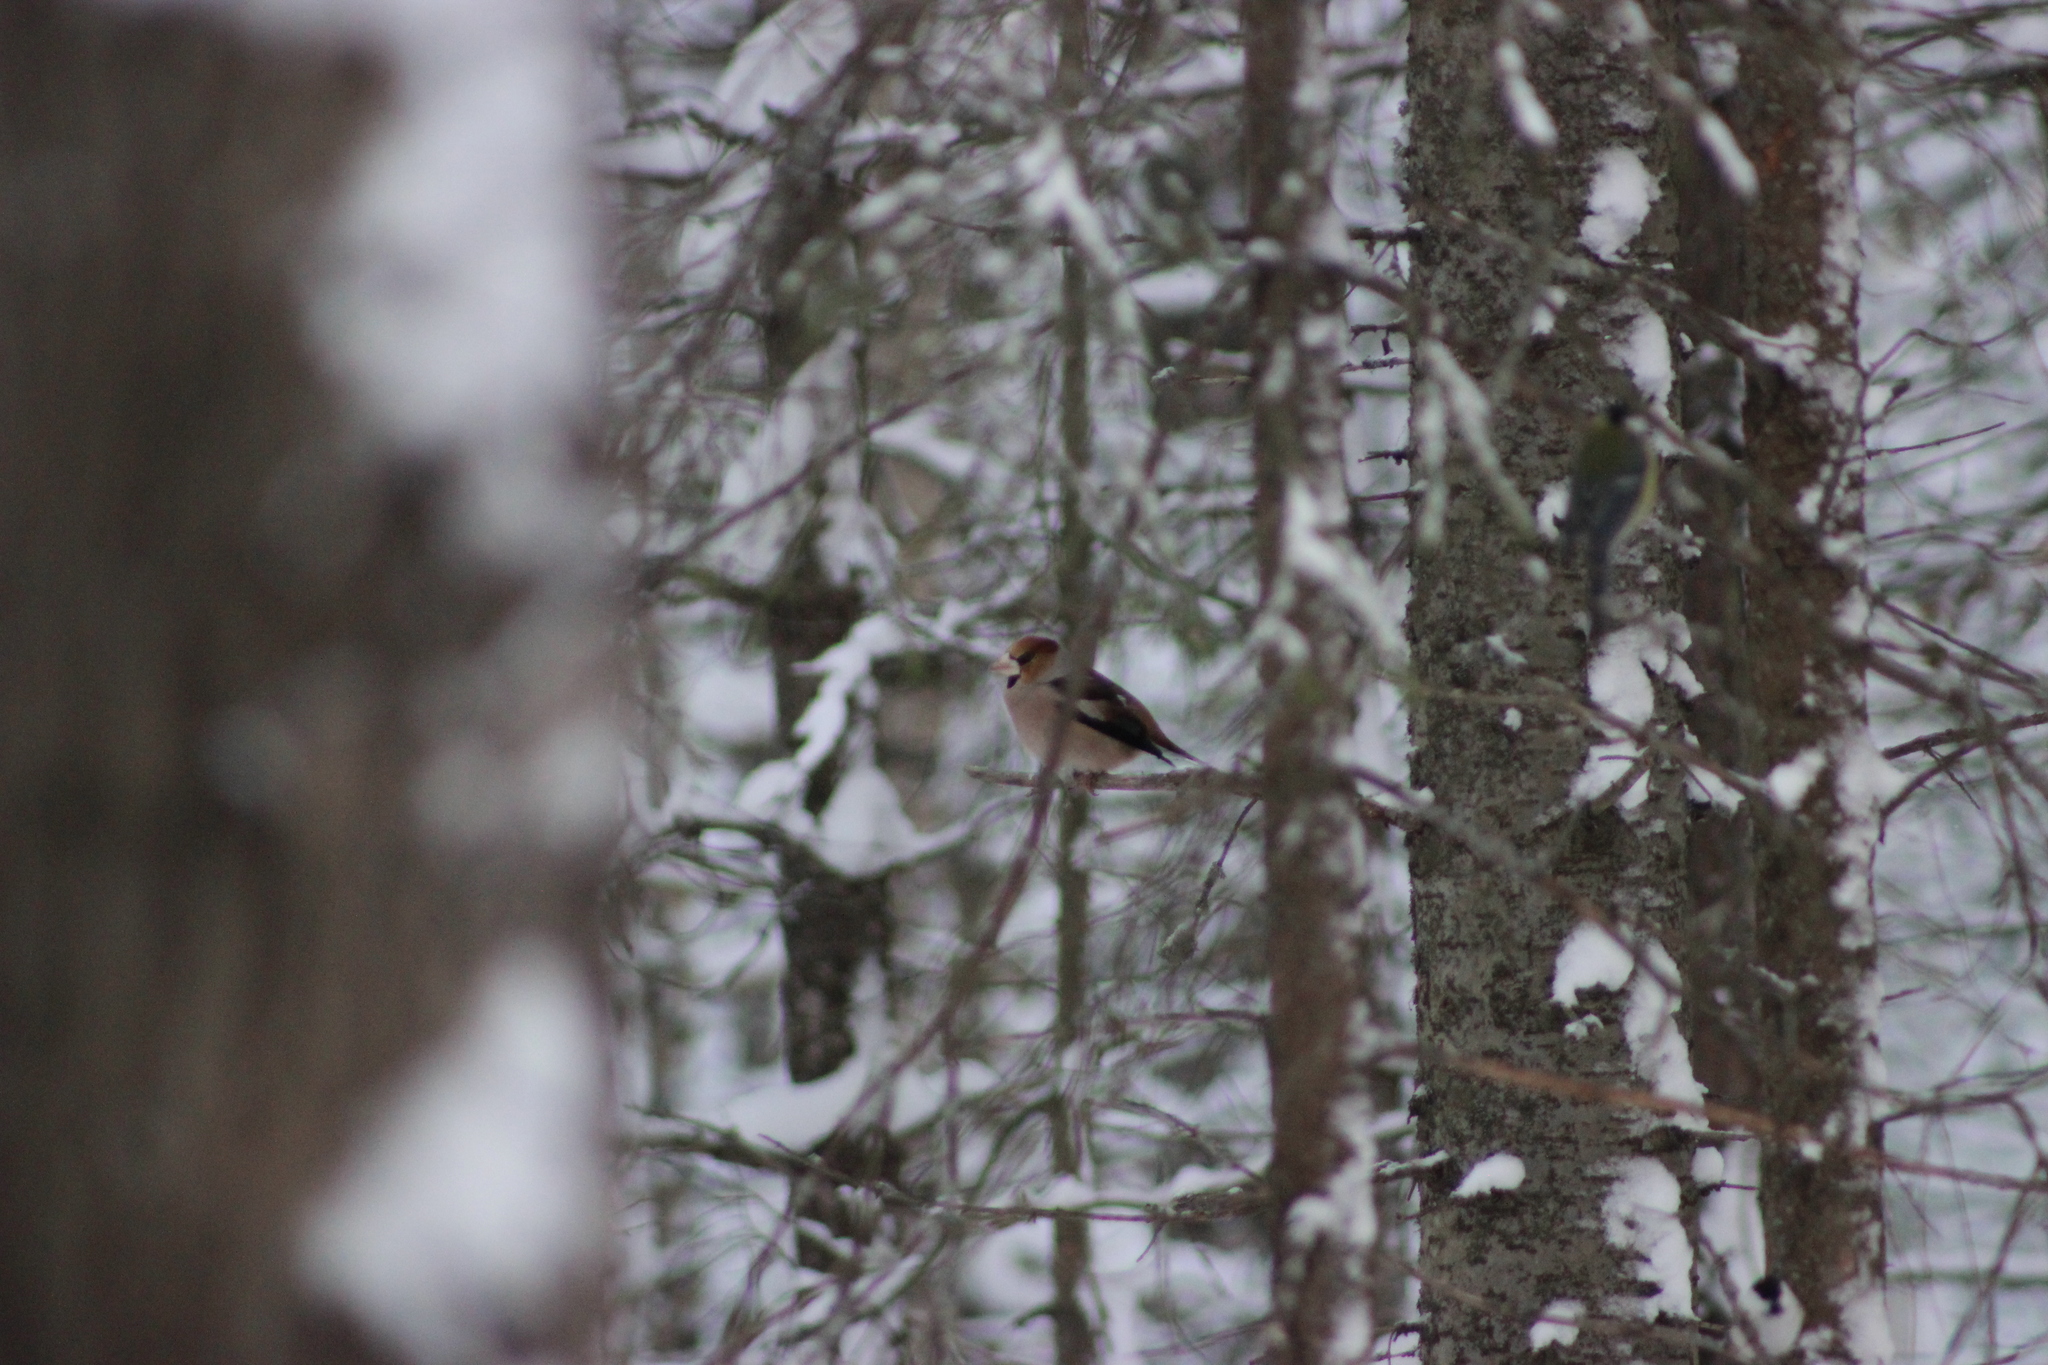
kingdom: Animalia
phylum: Chordata
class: Aves
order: Passeriformes
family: Fringillidae
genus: Coccothraustes
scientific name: Coccothraustes coccothraustes
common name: Hawfinch
